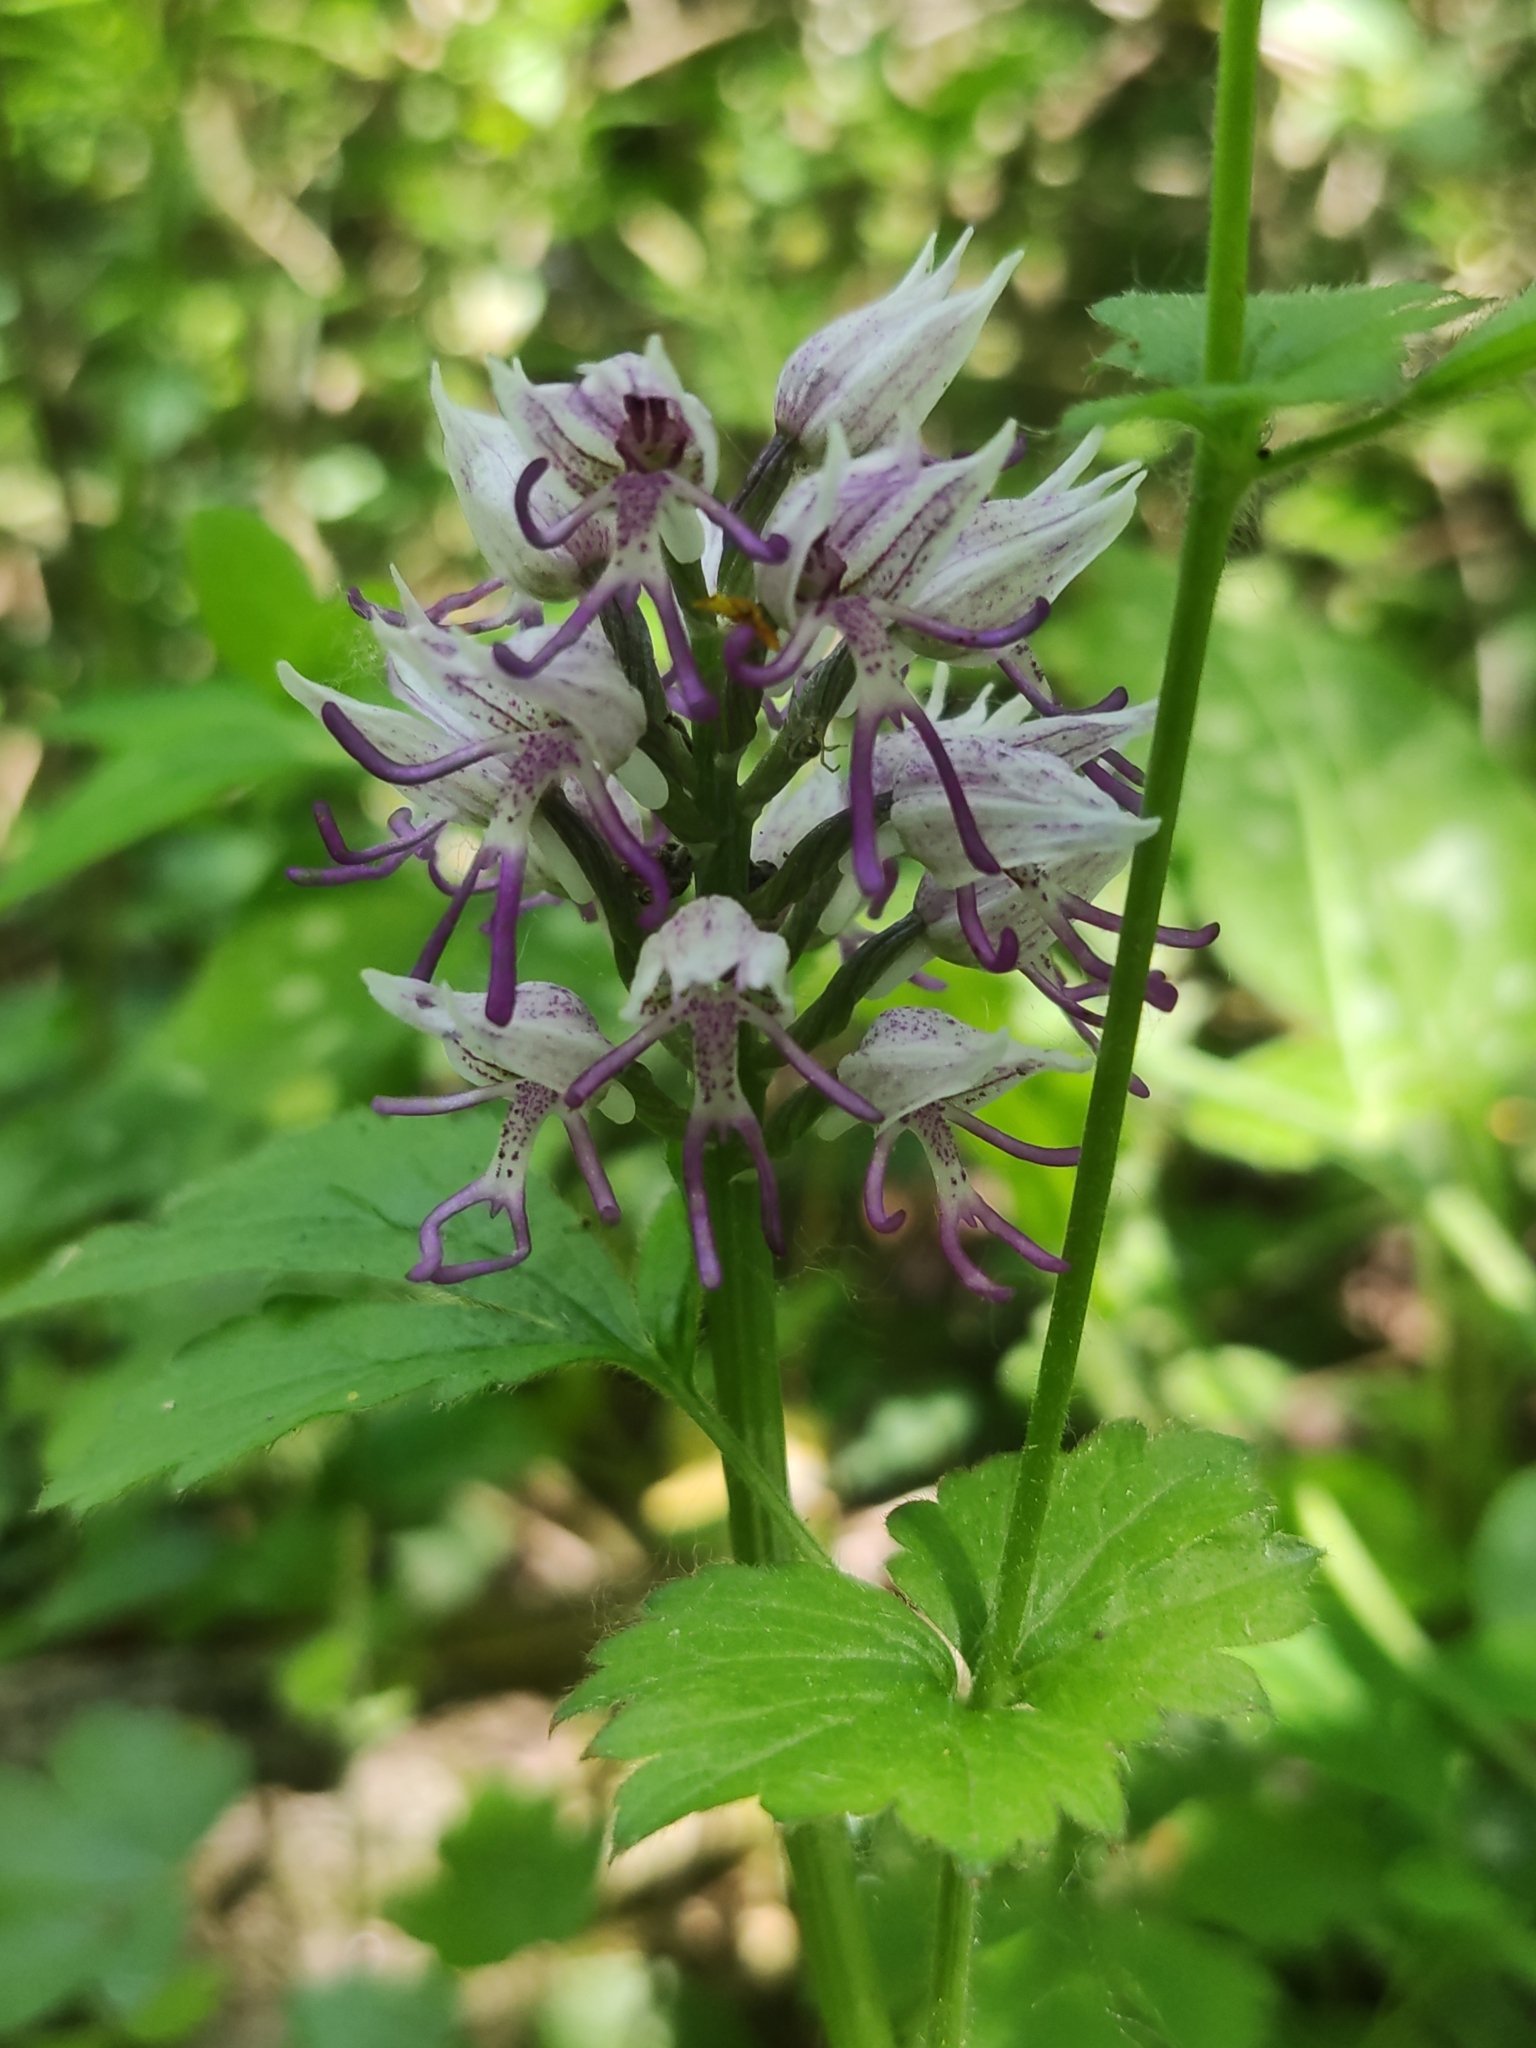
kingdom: Plantae
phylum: Tracheophyta
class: Liliopsida
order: Asparagales
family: Orchidaceae
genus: Orchis
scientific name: Orchis simia
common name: Monkey orchid
